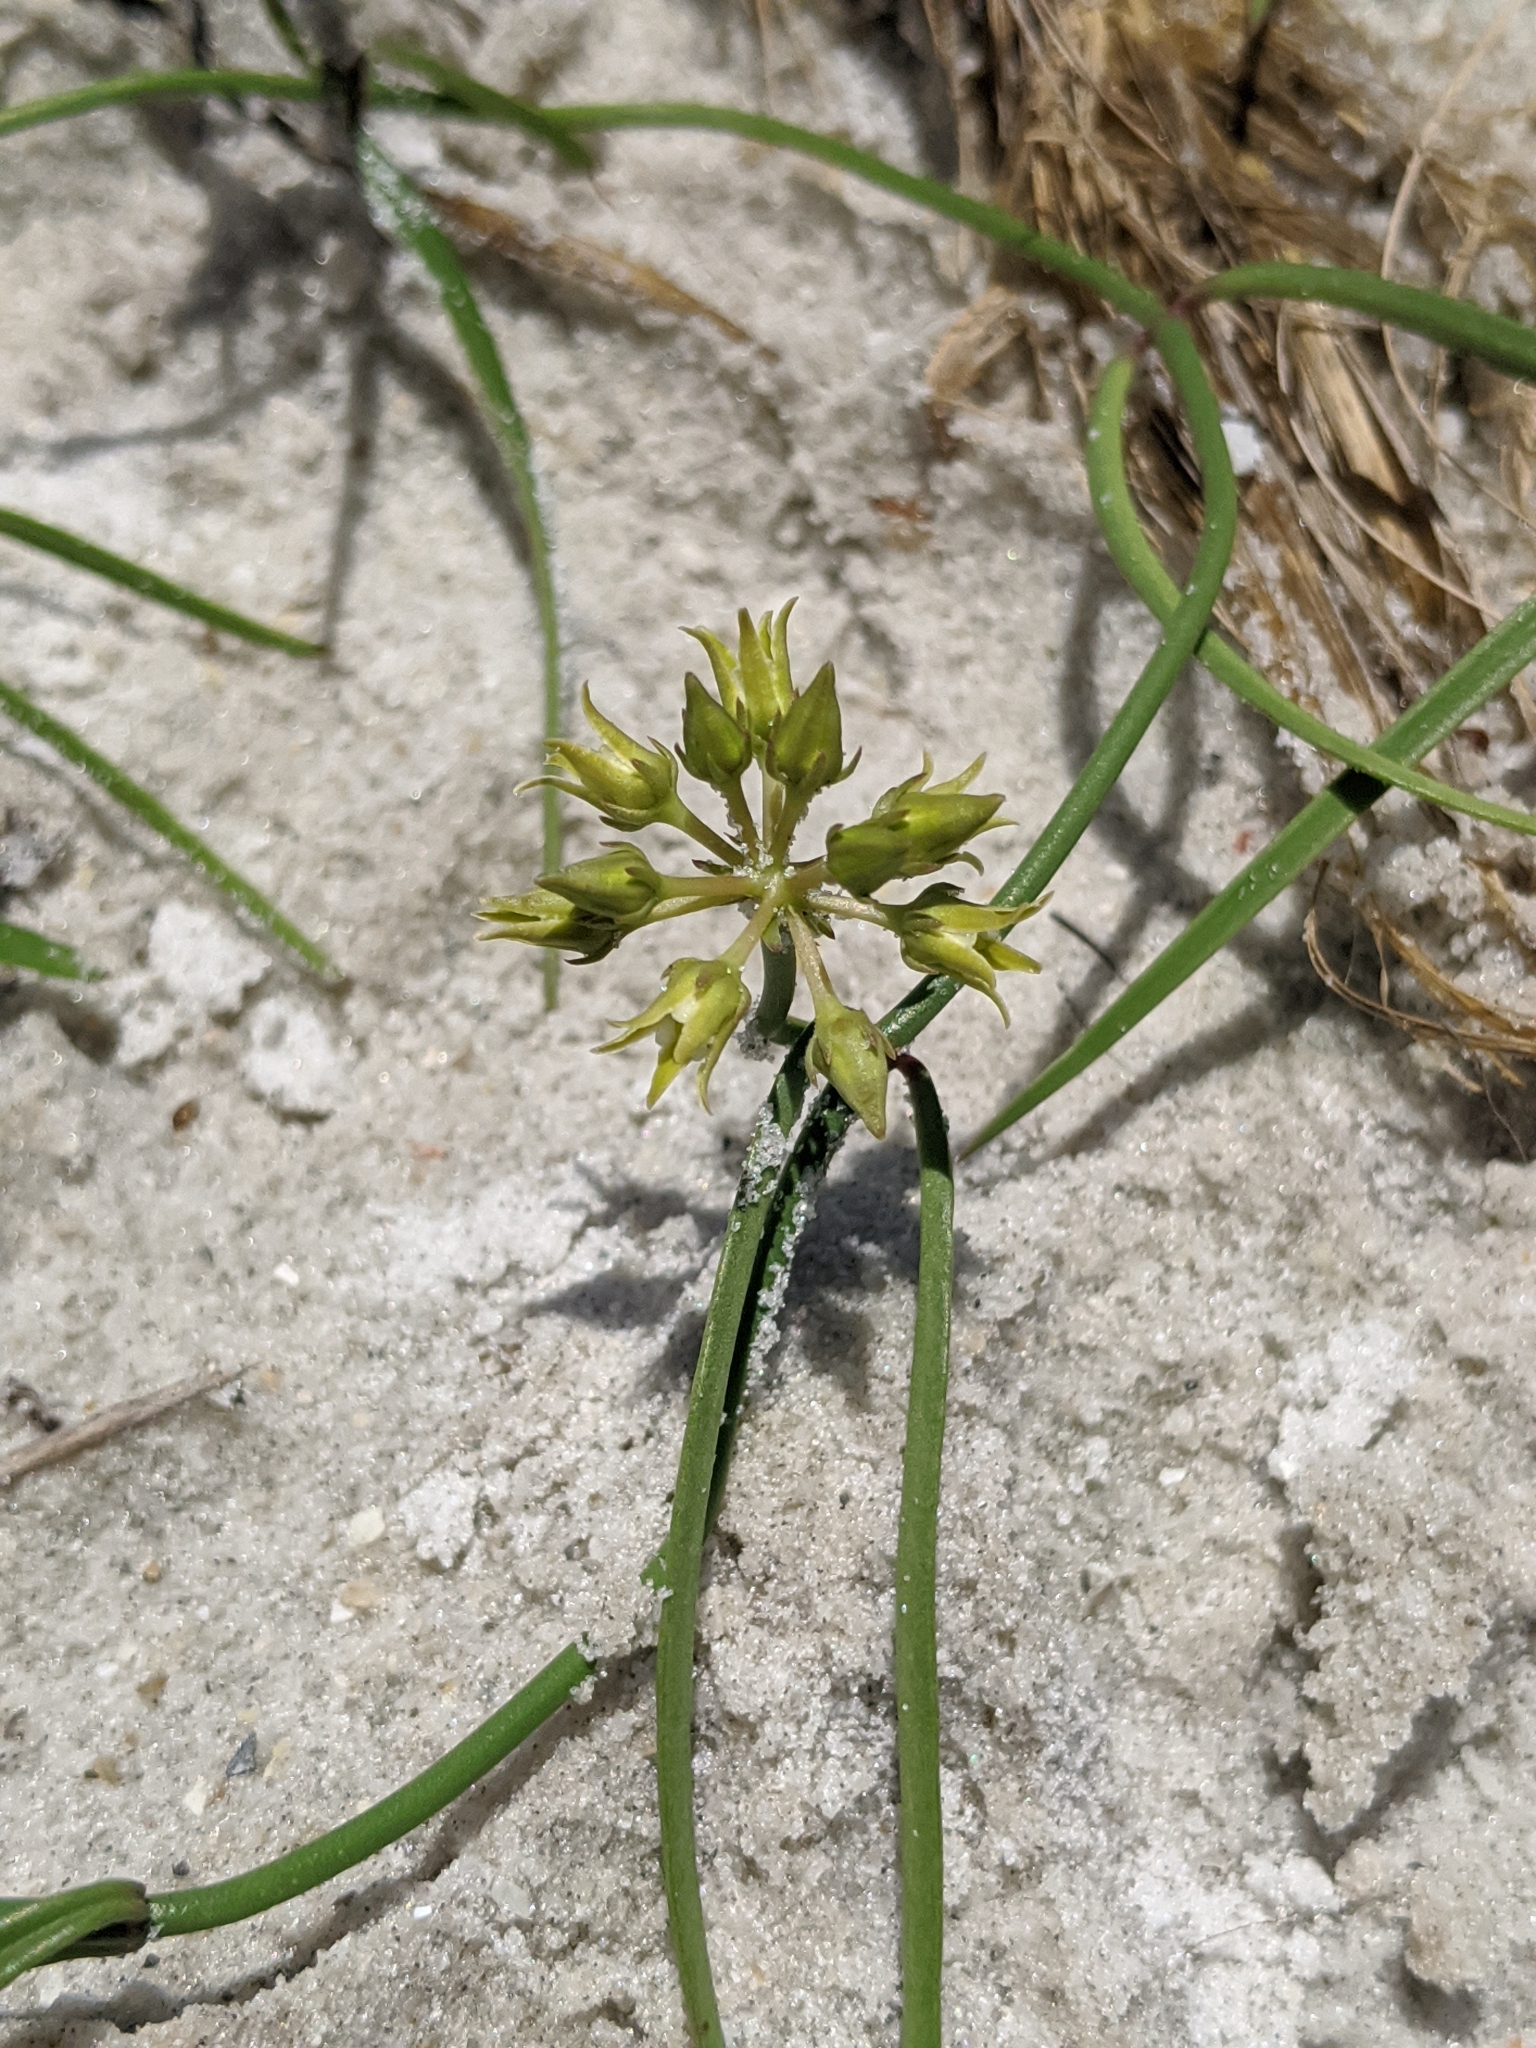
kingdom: Plantae
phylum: Tracheophyta
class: Magnoliopsida
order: Gentianales
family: Apocynaceae
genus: Pattalias
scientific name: Pattalias
